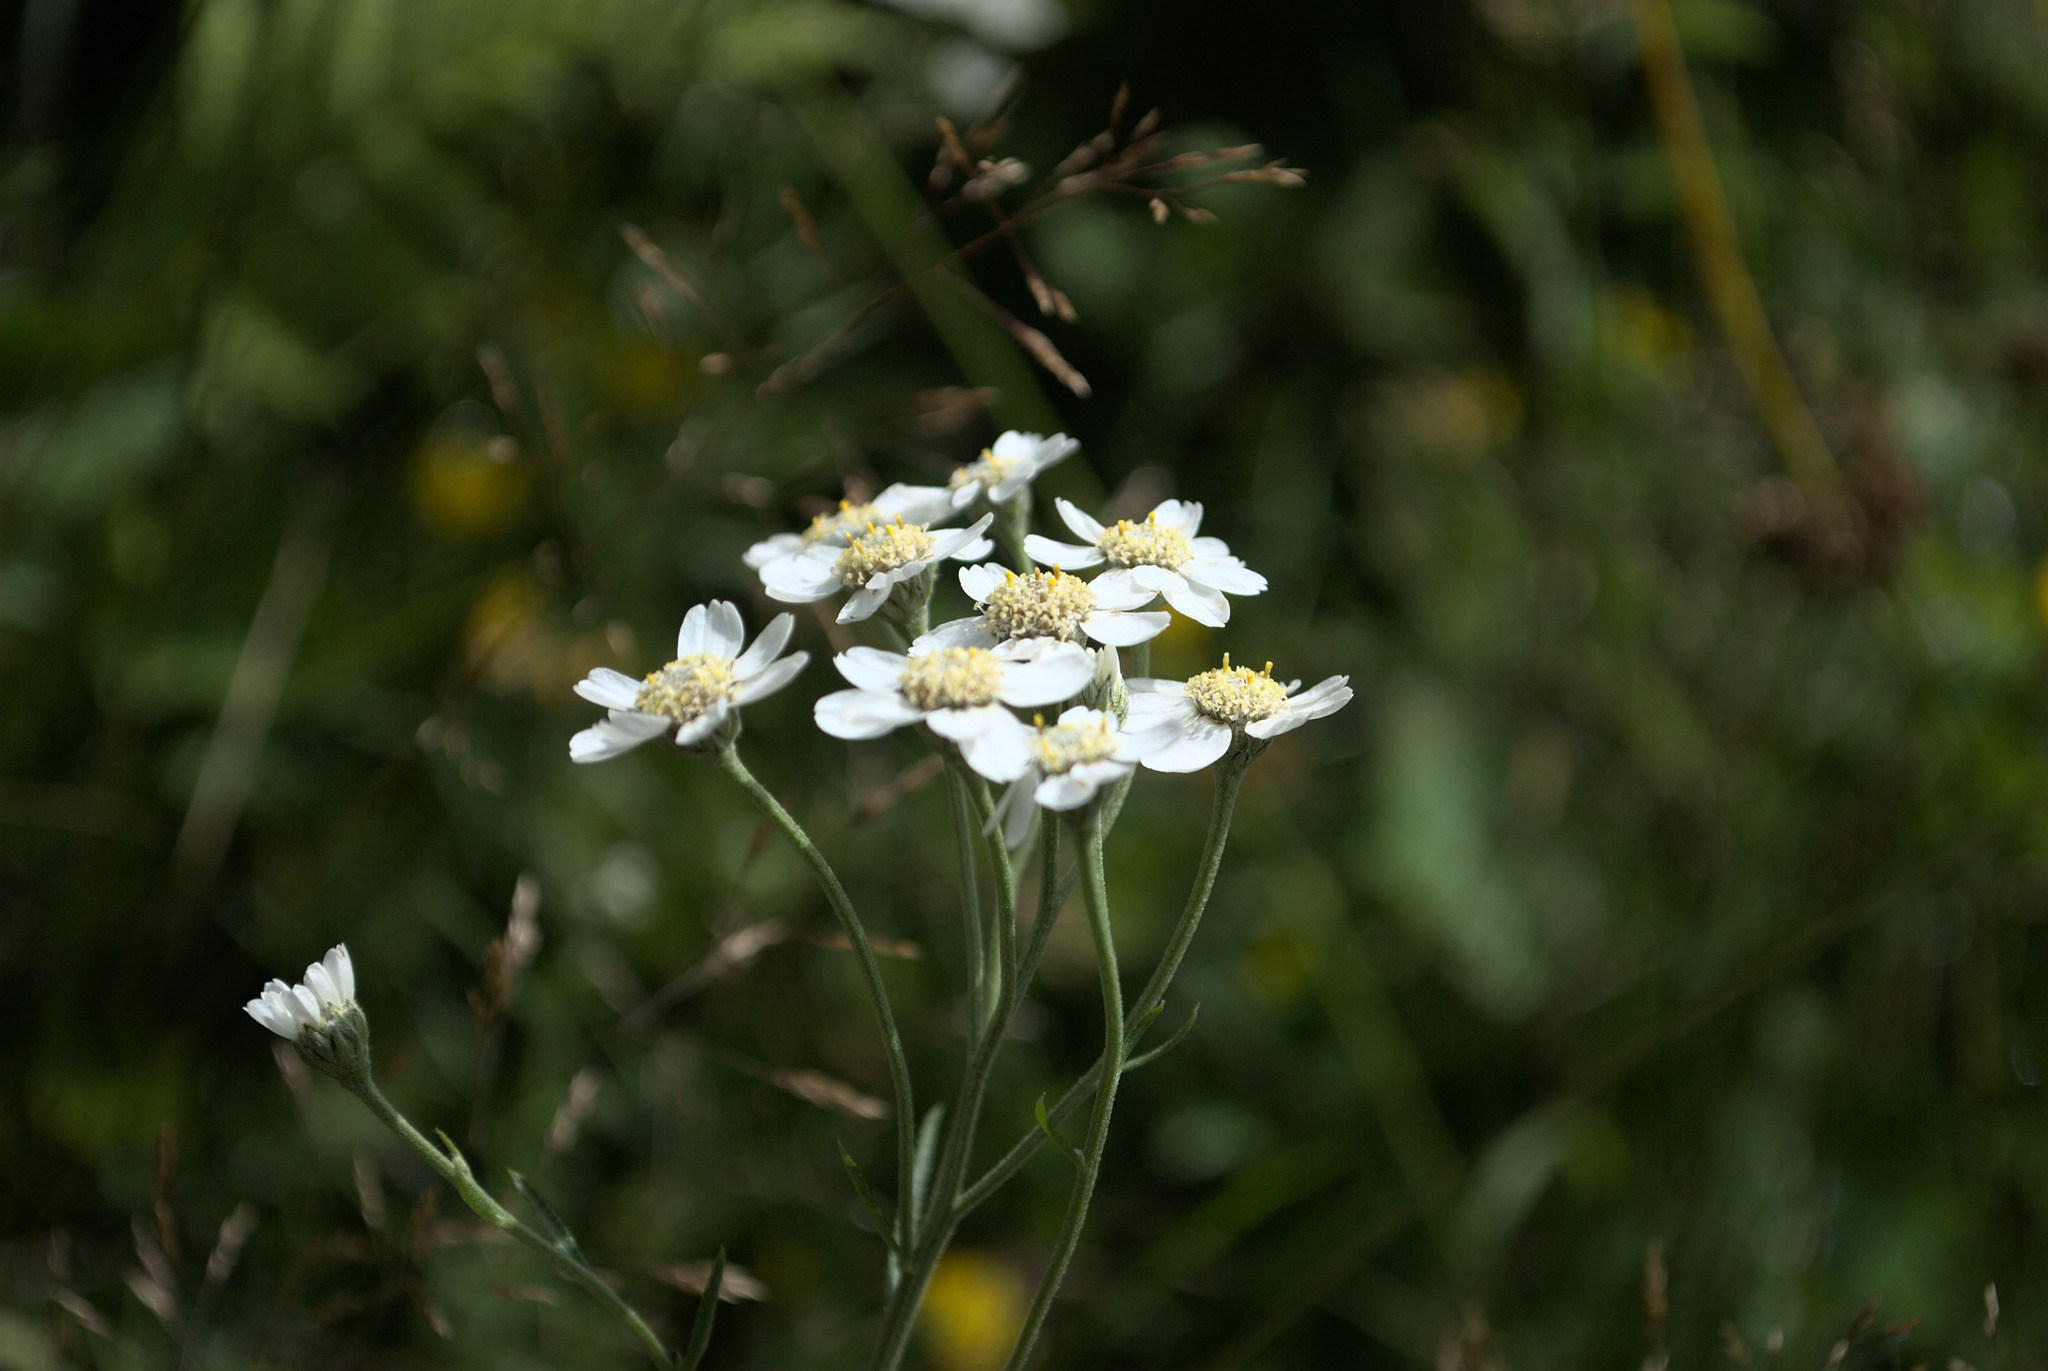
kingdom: Plantae
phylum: Tracheophyta
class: Magnoliopsida
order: Asterales
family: Asteraceae
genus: Achillea
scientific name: Achillea ptarmica
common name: Sneezeweed
